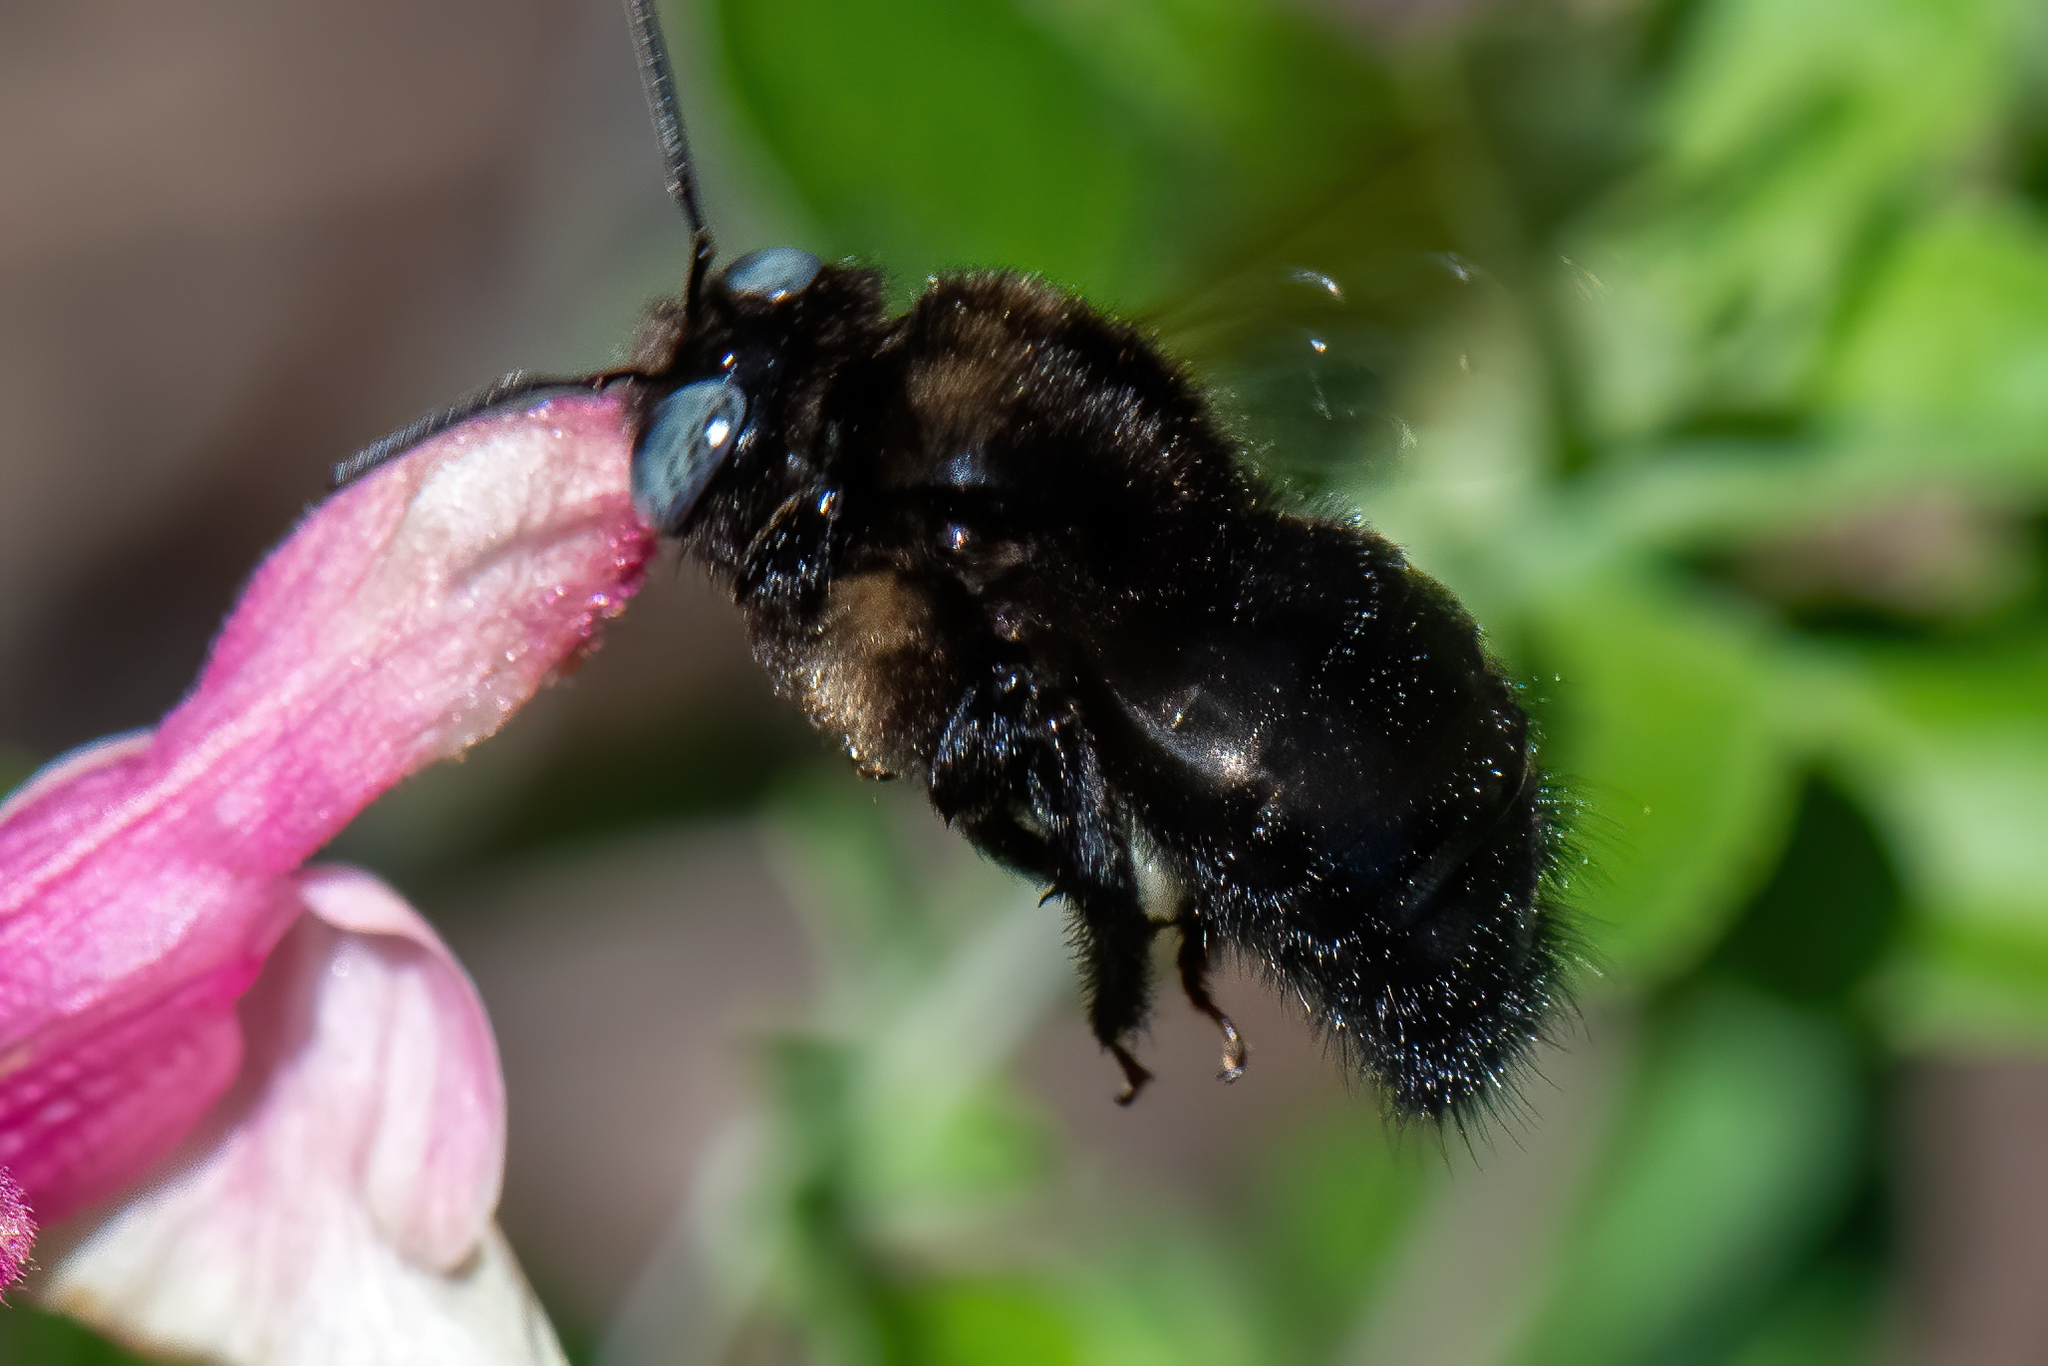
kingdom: Animalia
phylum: Arthropoda
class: Insecta
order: Hymenoptera
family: Apidae
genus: Xylocopa
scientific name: Xylocopa tabaniformis
